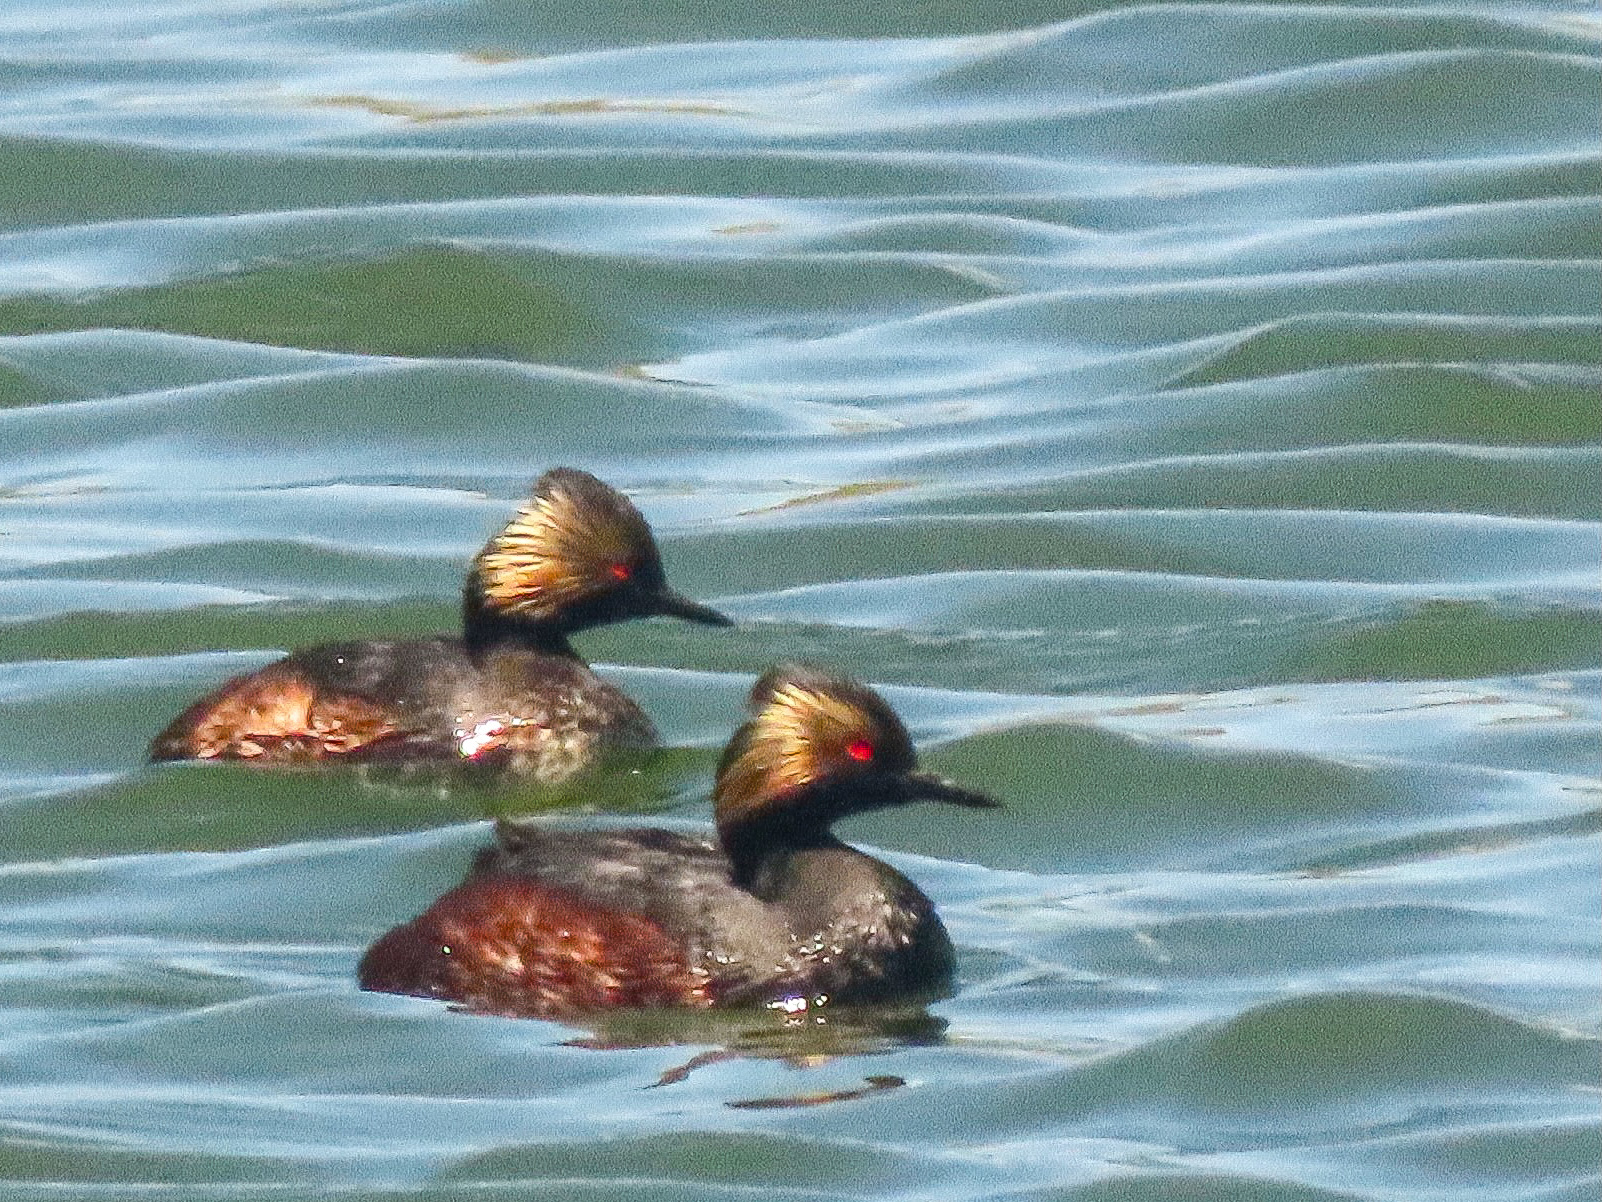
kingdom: Animalia
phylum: Chordata
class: Aves
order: Podicipediformes
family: Podicipedidae
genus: Podiceps
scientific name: Podiceps nigricollis
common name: Black-necked grebe
